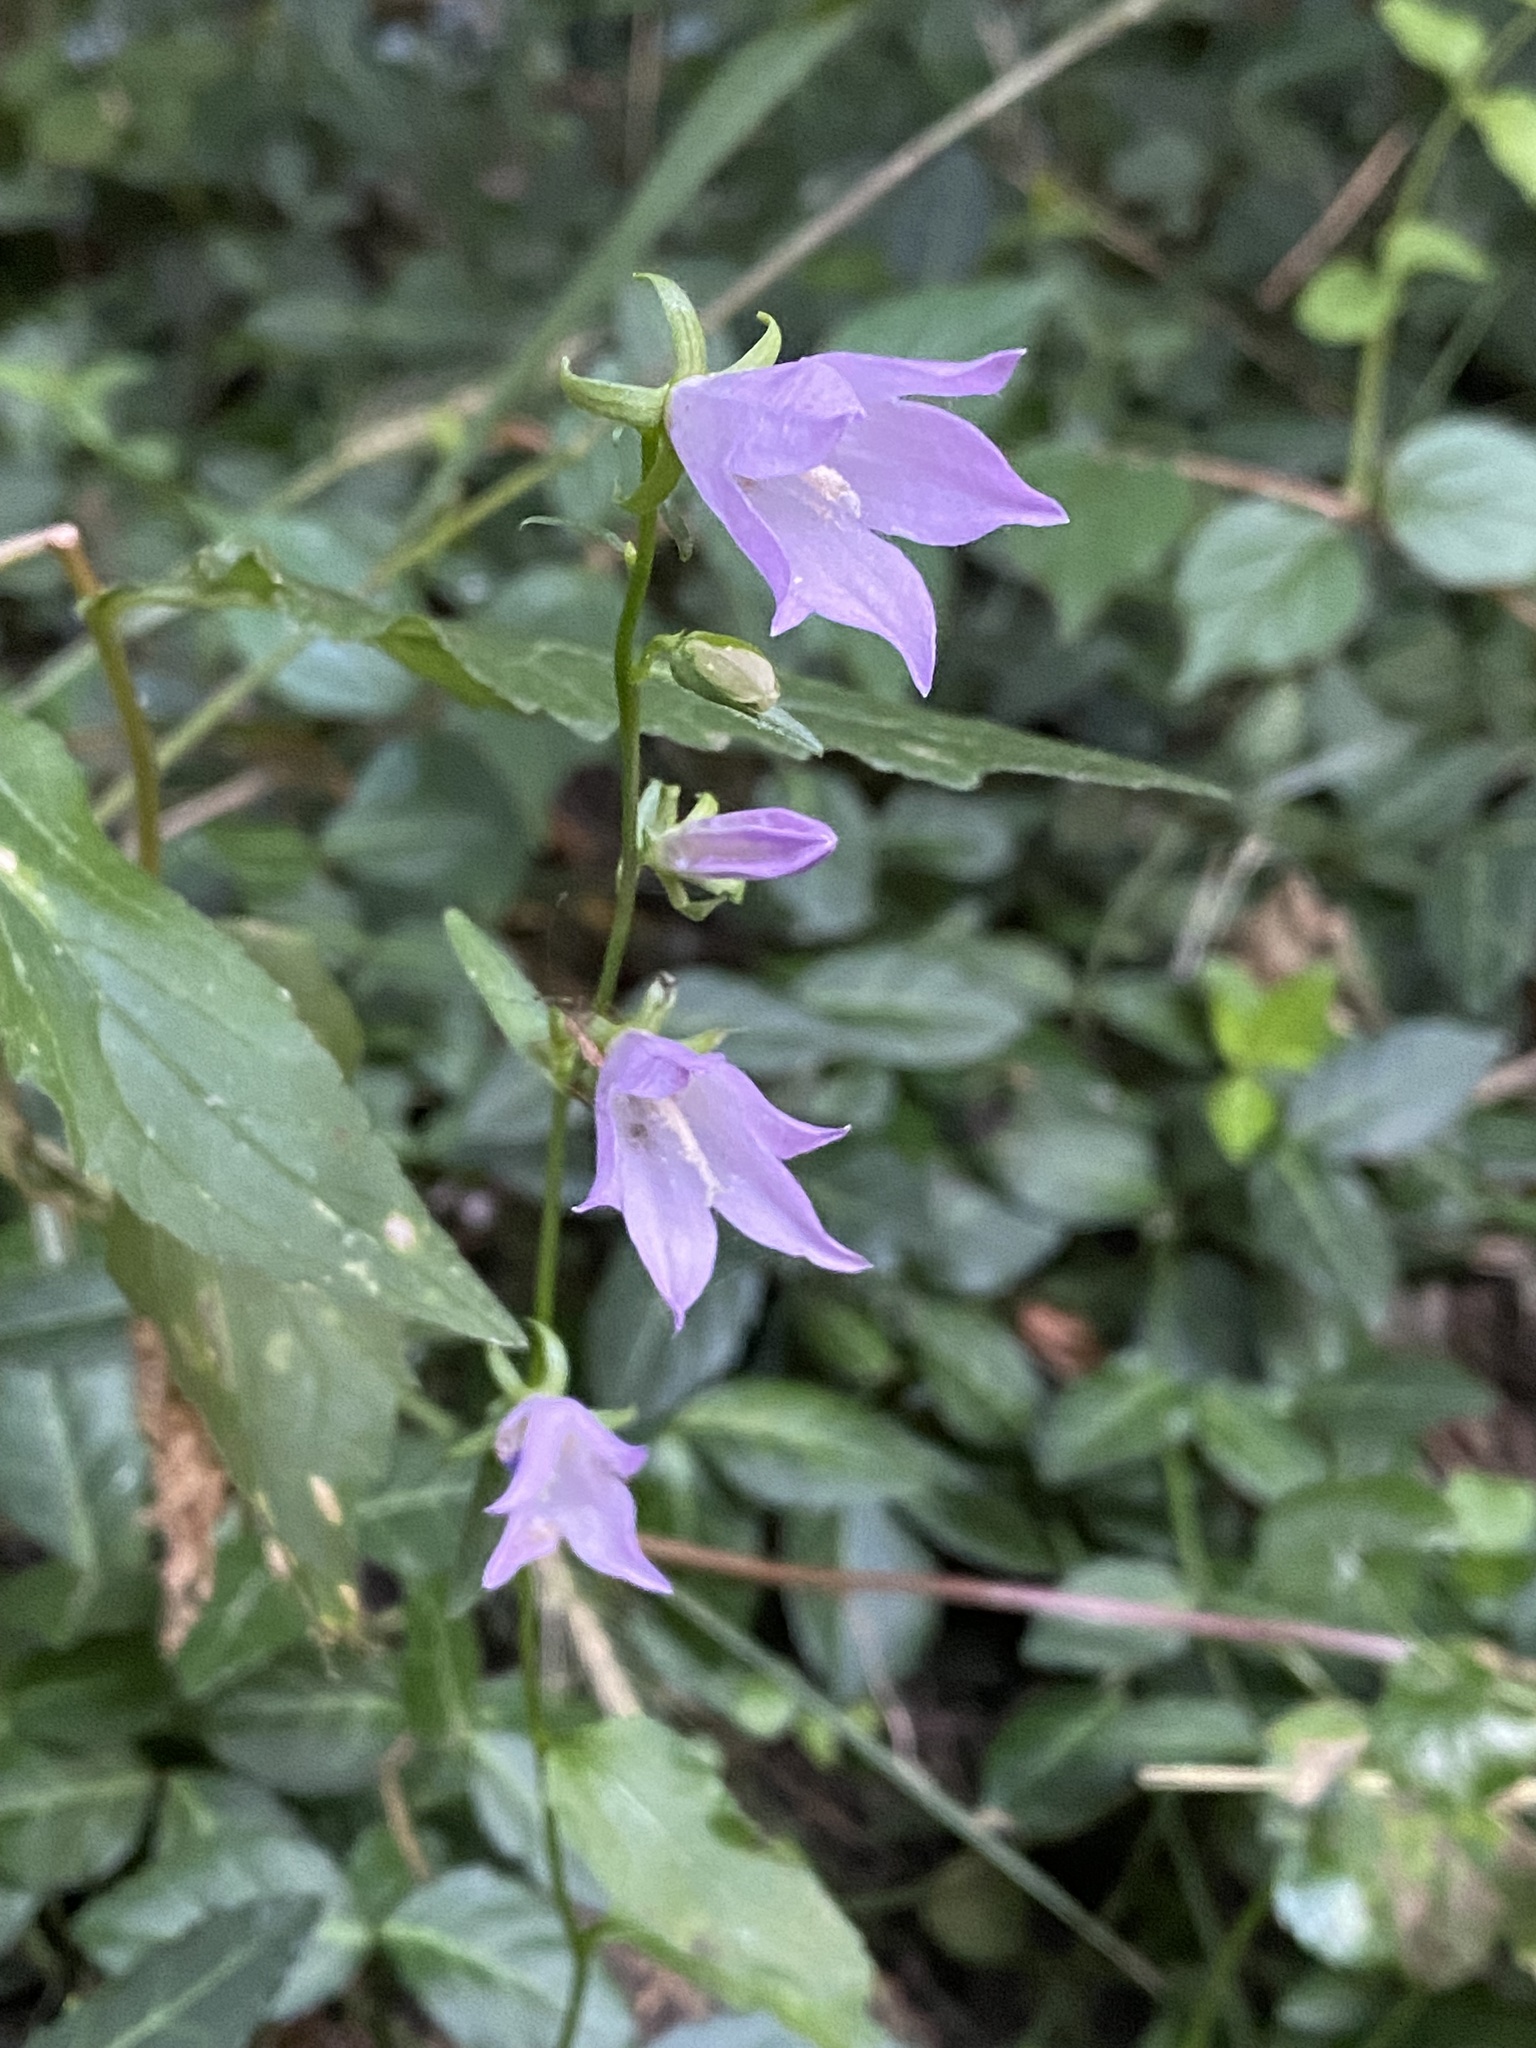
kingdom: Plantae
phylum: Tracheophyta
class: Magnoliopsida
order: Asterales
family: Campanulaceae
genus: Campanula
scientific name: Campanula rapunculoides
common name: Creeping bellflower
